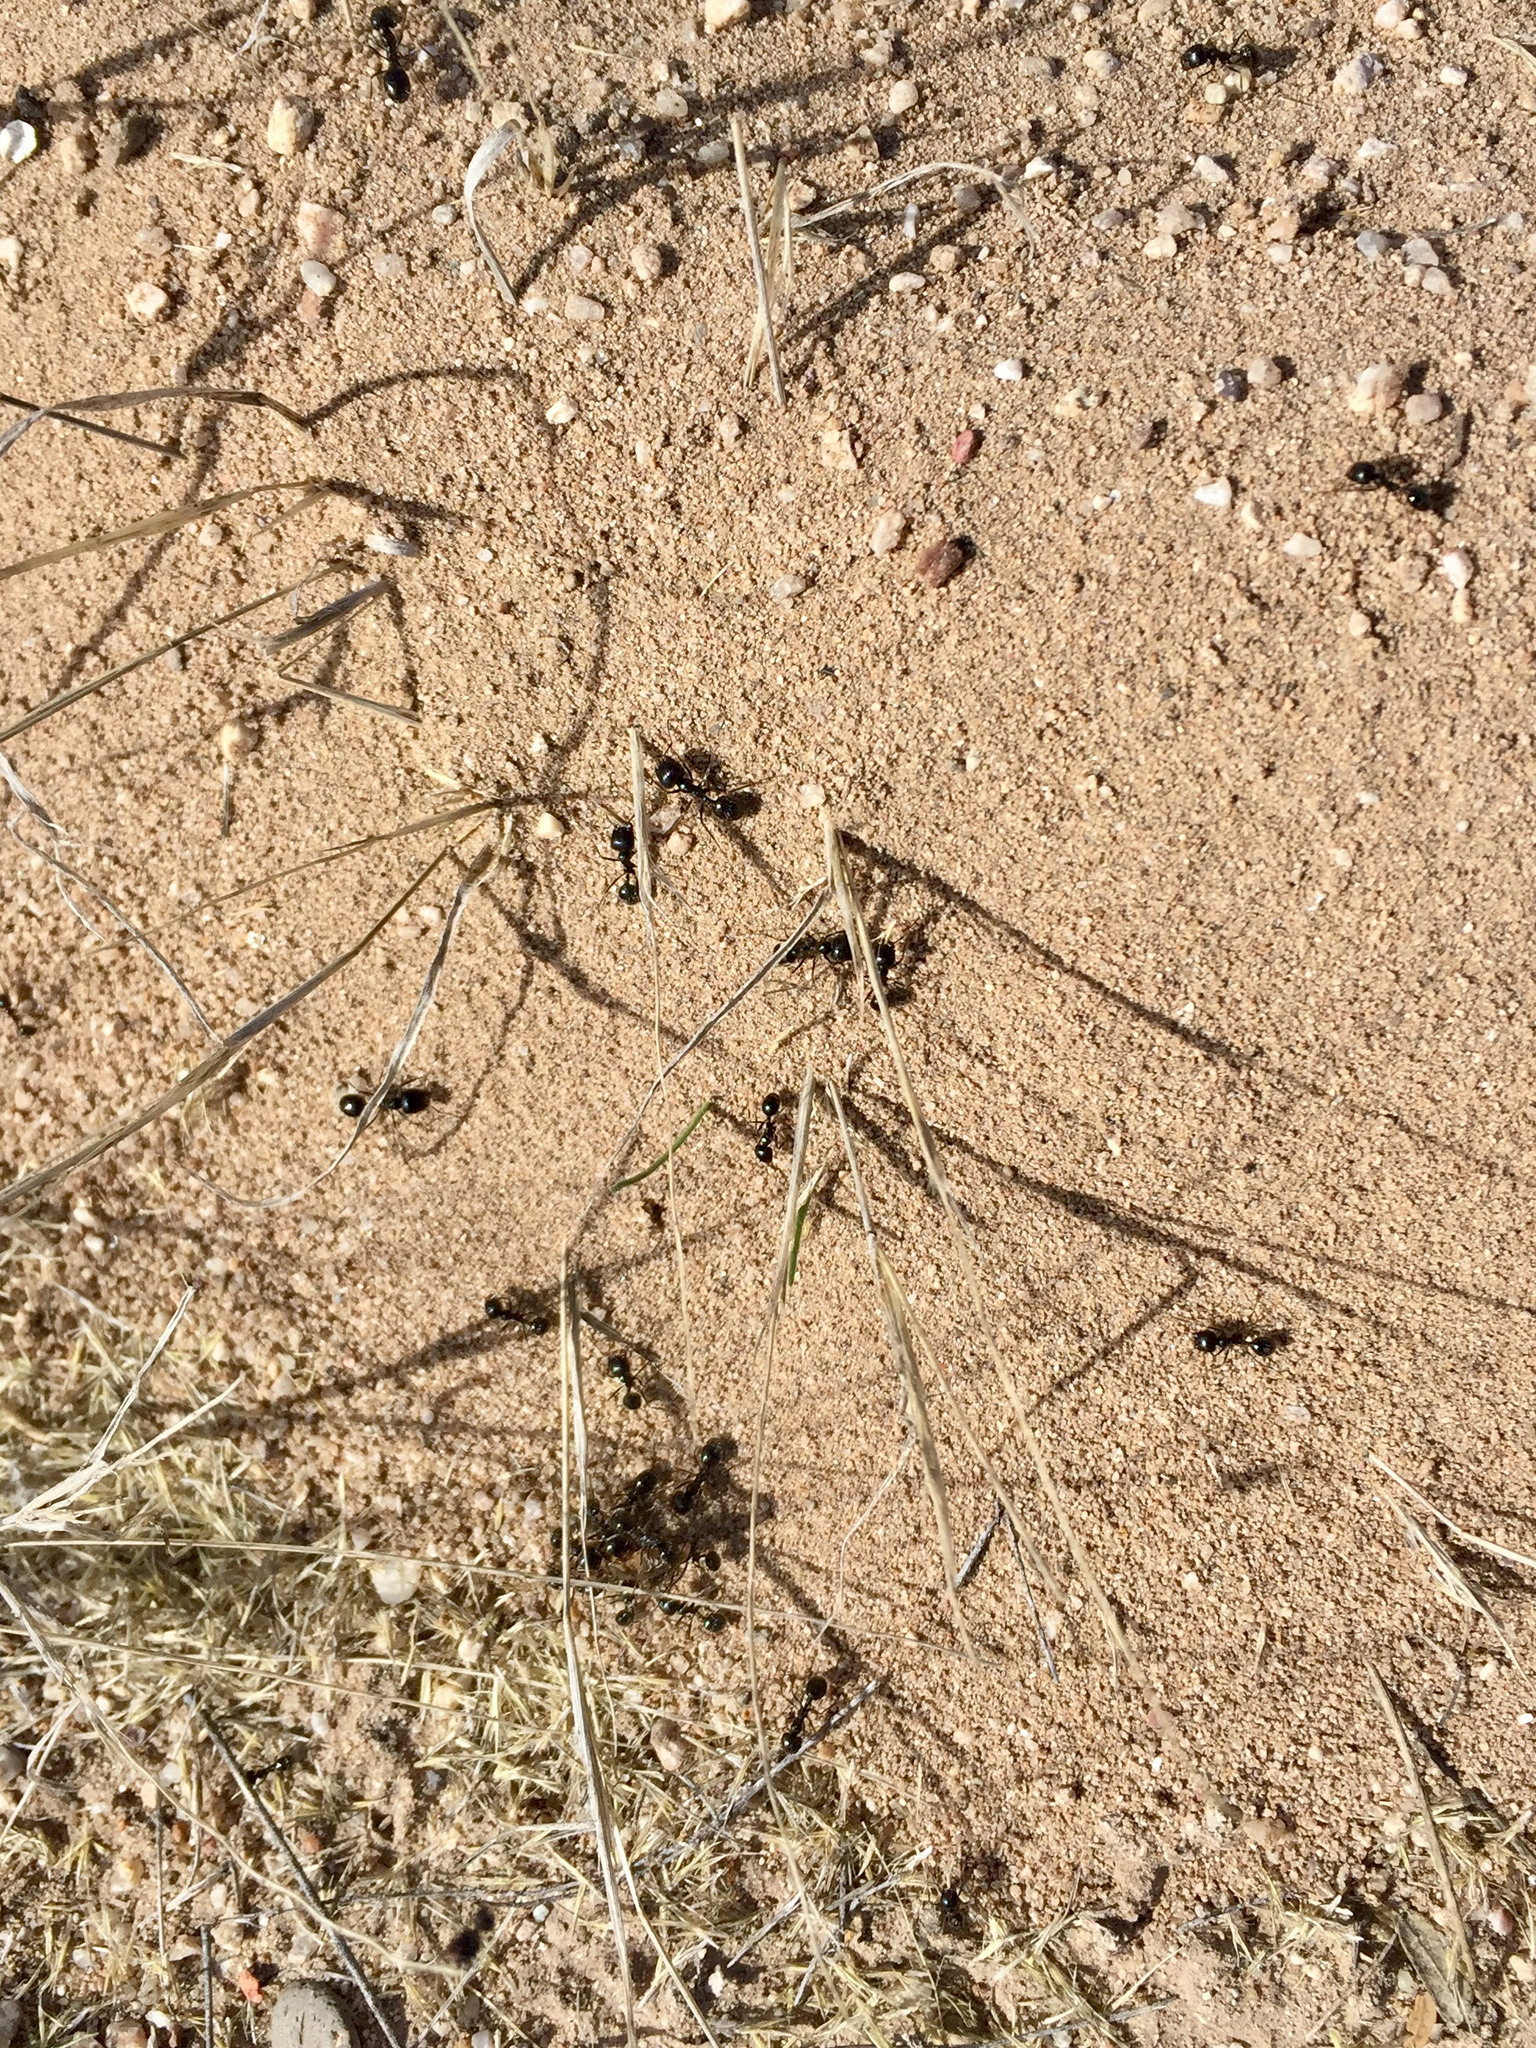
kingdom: Animalia
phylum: Arthropoda
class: Insecta
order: Hymenoptera
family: Formicidae
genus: Messor
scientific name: Messor pergandei
